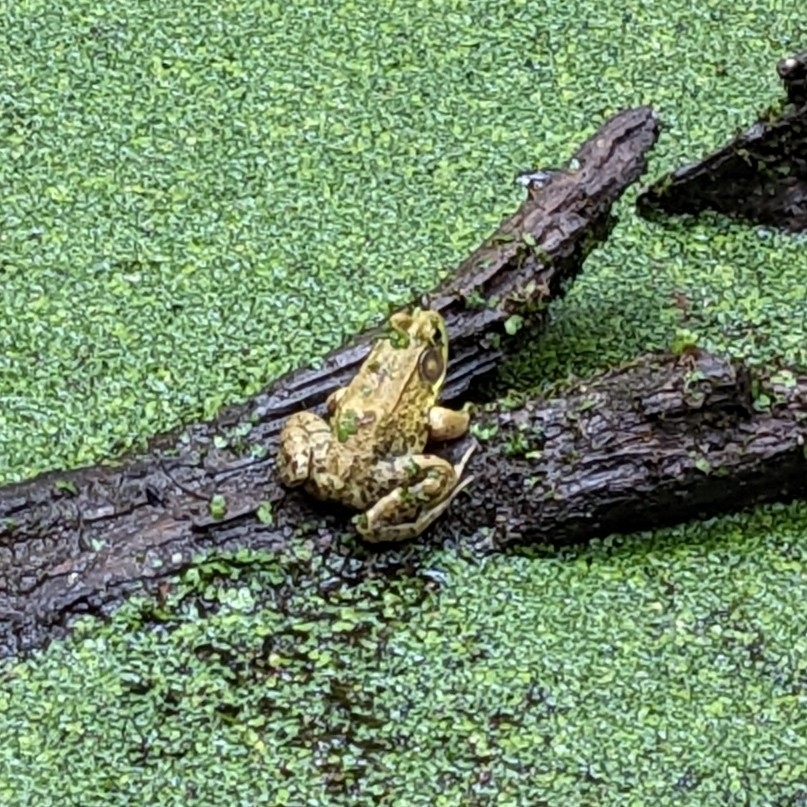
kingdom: Animalia
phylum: Chordata
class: Amphibia
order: Anura
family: Ranidae
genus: Lithobates
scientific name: Lithobates clamitans
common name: Green frog
